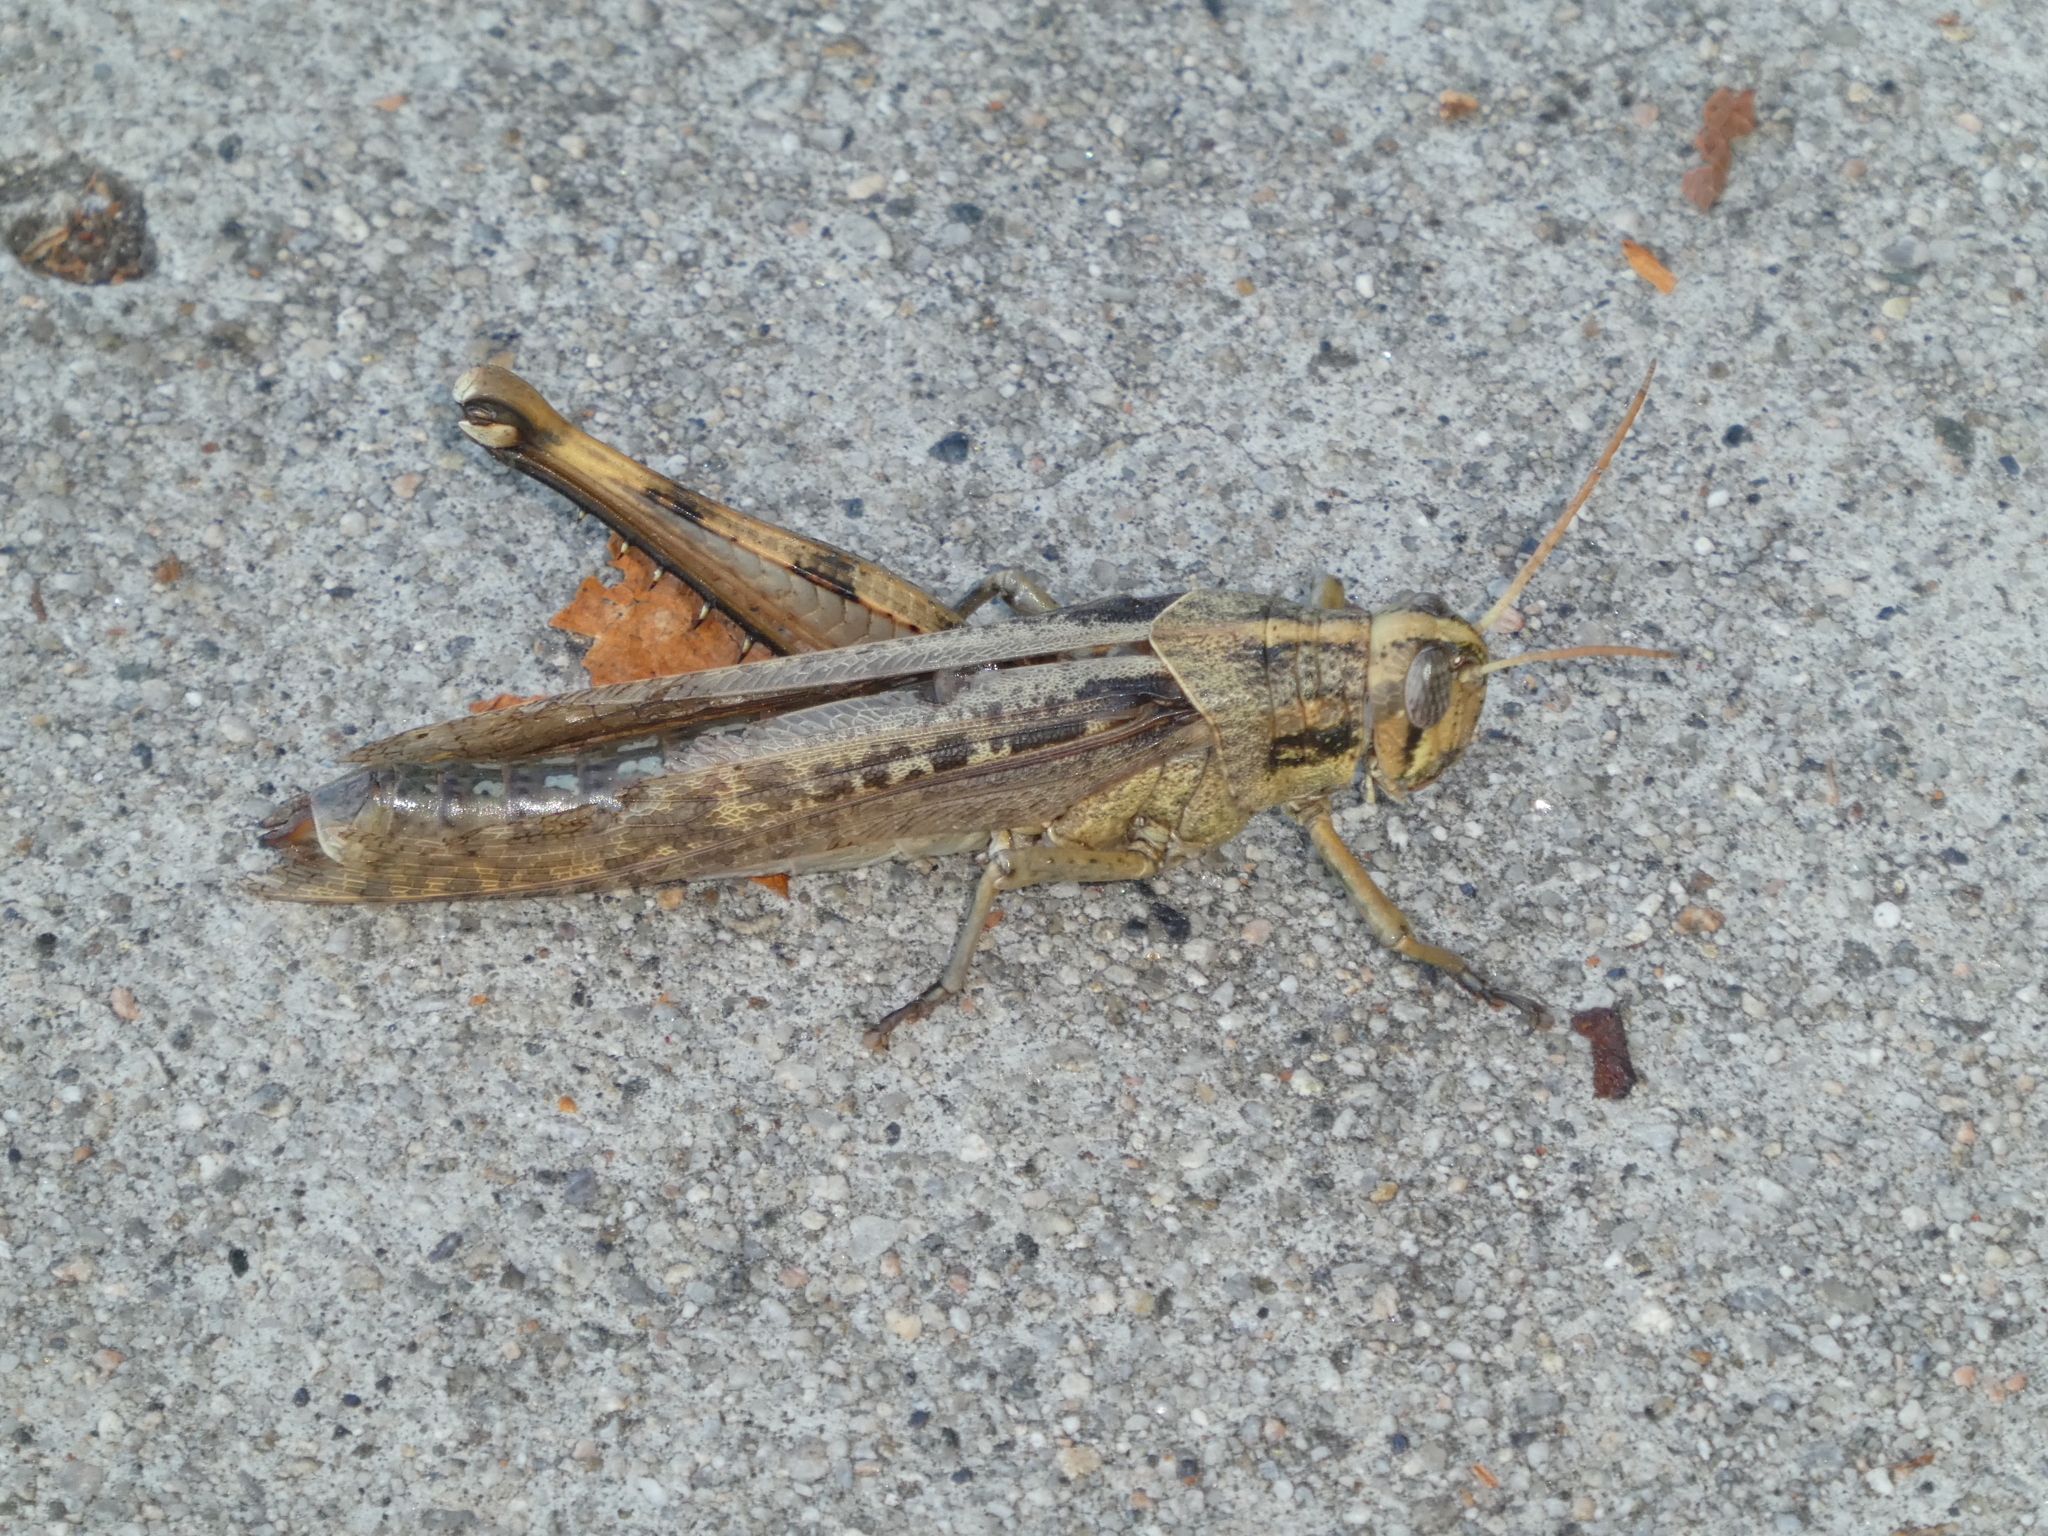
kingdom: Animalia
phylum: Arthropoda
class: Insecta
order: Orthoptera
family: Acrididae
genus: Schistocerca
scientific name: Schistocerca nitens
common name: Vagrant grasshopper
